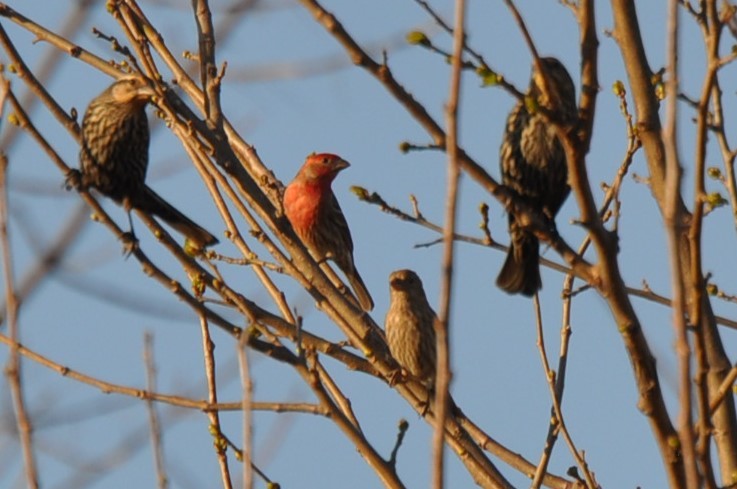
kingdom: Animalia
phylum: Chordata
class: Aves
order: Passeriformes
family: Fringillidae
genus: Haemorhous
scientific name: Haemorhous mexicanus
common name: House finch
